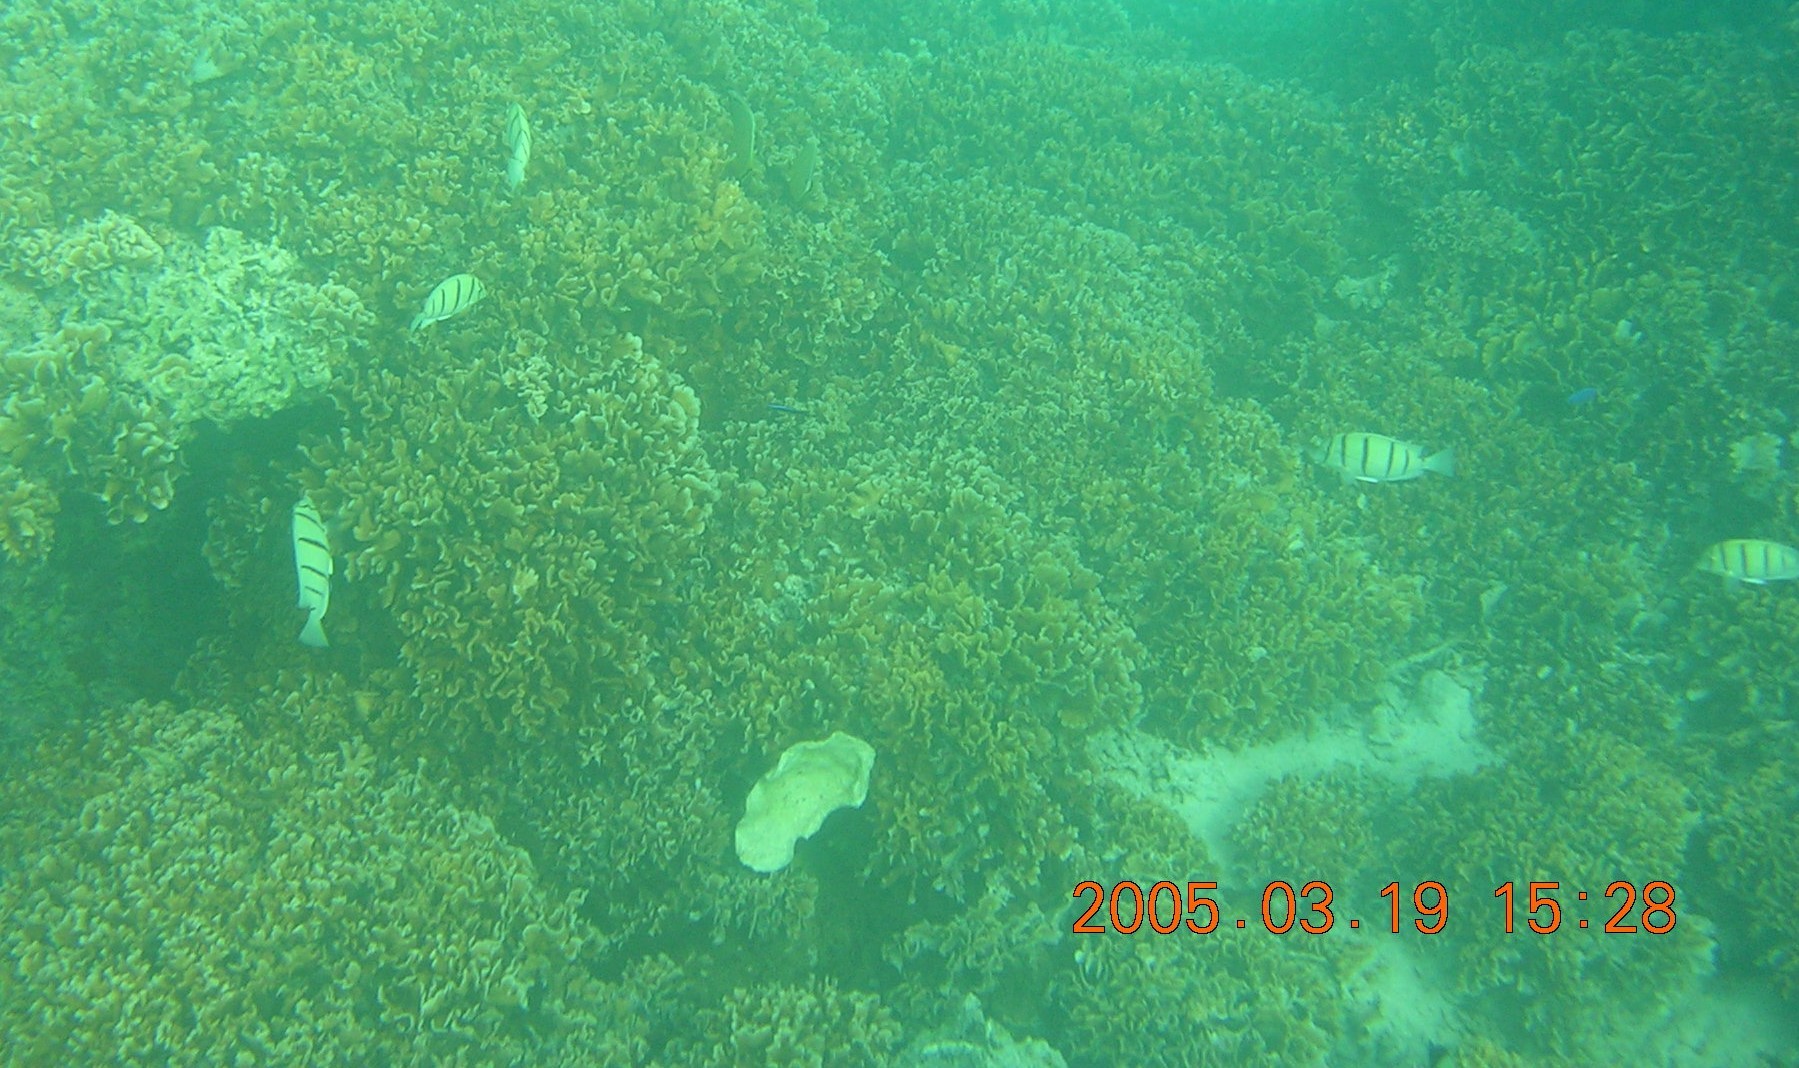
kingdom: Animalia
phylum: Chordata
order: Perciformes
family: Acanthuridae
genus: Acanthurus
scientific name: Acanthurus triostegus
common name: Convict surgeonfish
